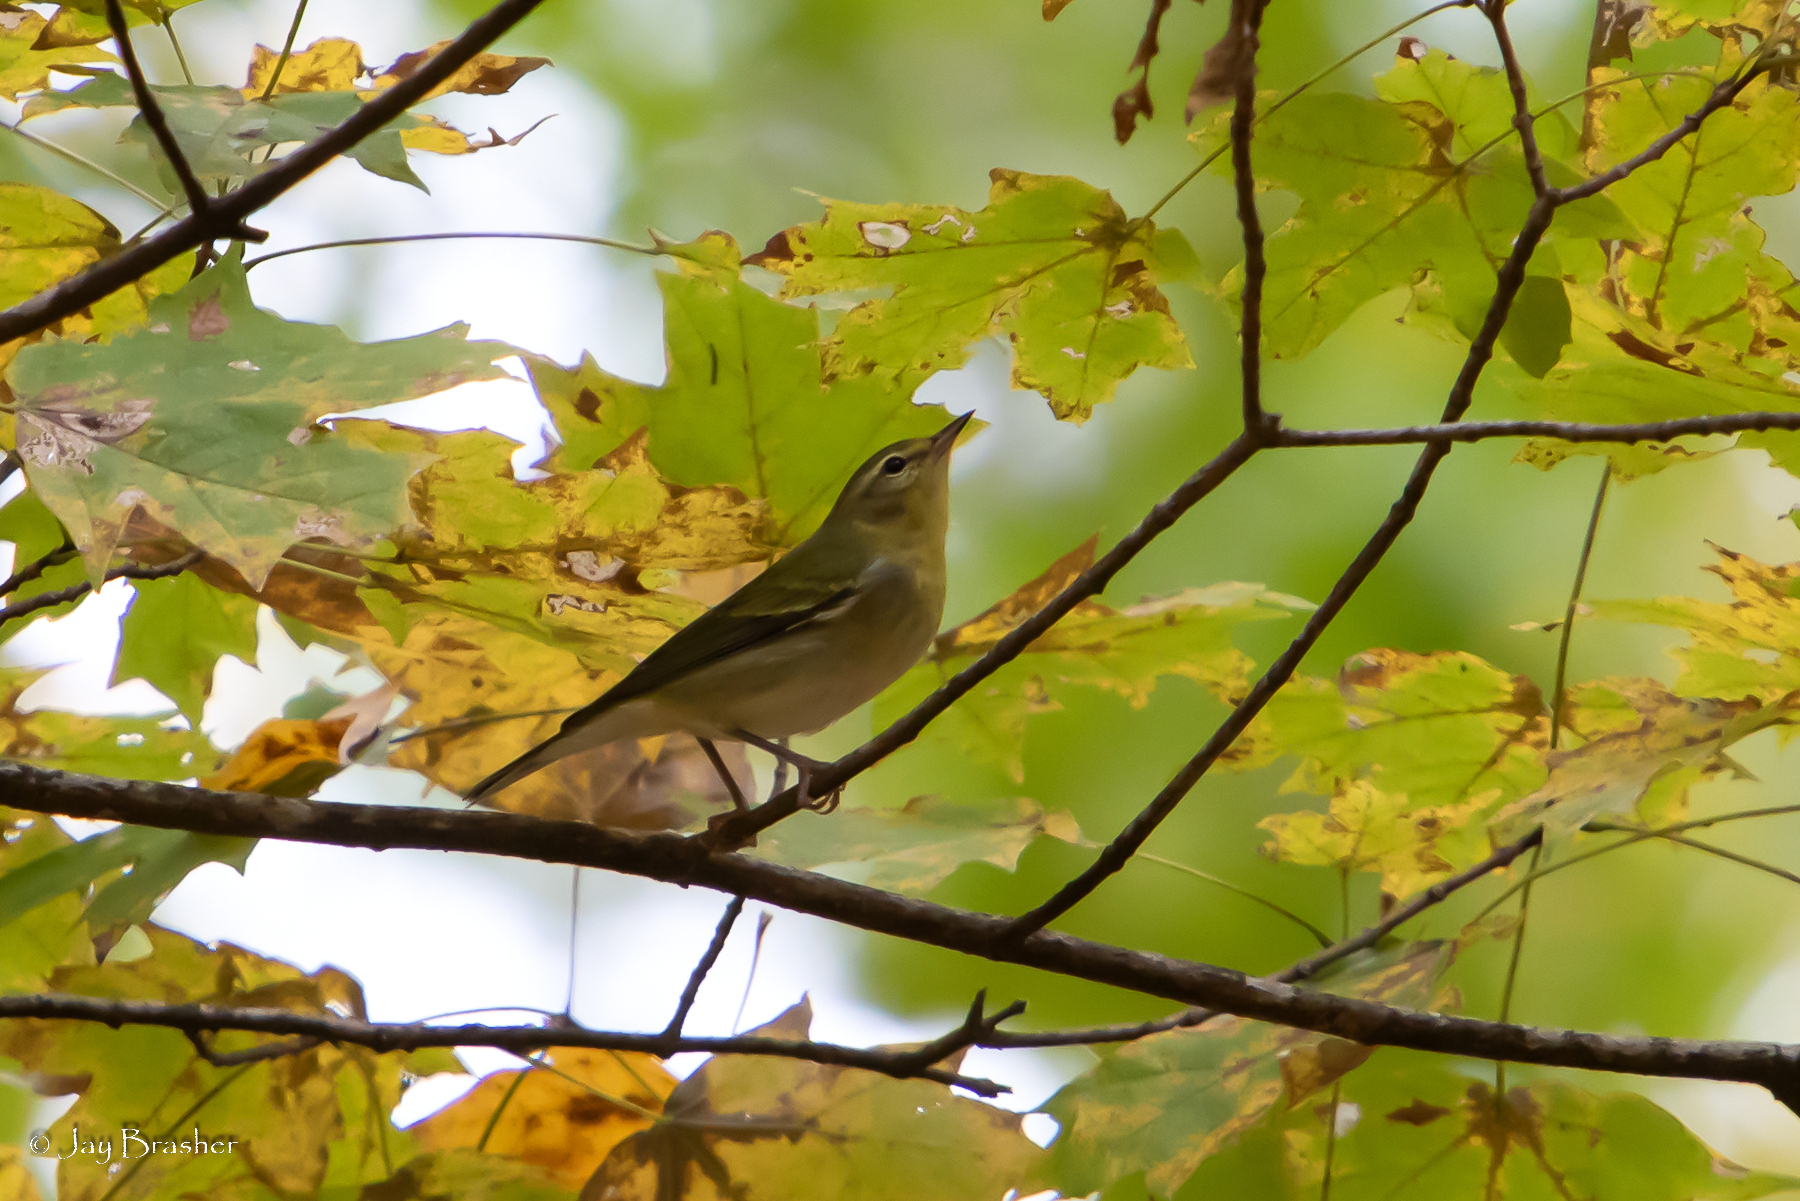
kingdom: Animalia
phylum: Chordata
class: Aves
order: Passeriformes
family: Parulidae
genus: Leiothlypis
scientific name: Leiothlypis peregrina
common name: Tennessee warbler
